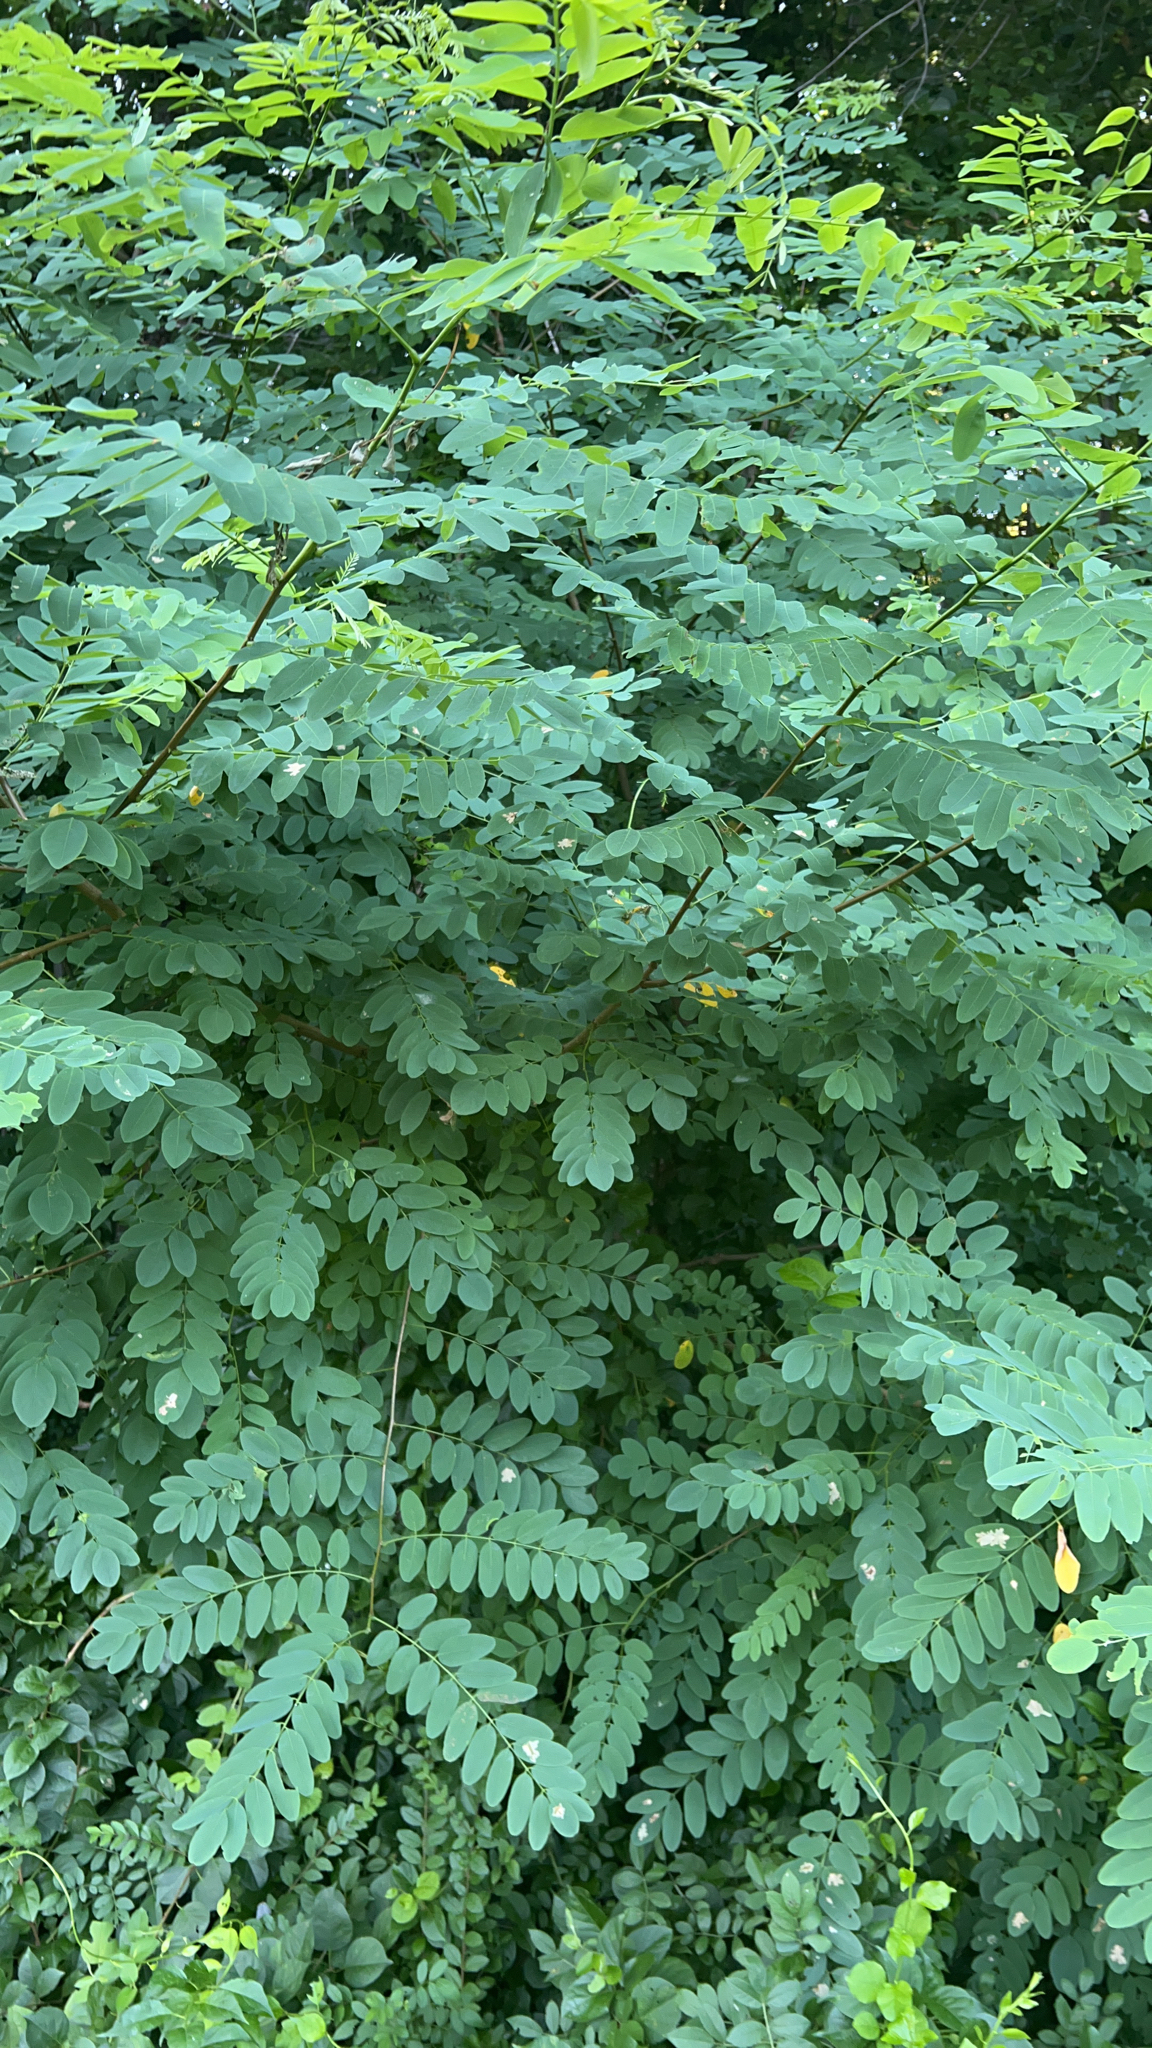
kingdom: Plantae
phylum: Tracheophyta
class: Magnoliopsida
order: Fabales
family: Fabaceae
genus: Robinia
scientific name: Robinia pseudoacacia
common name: Black locust
